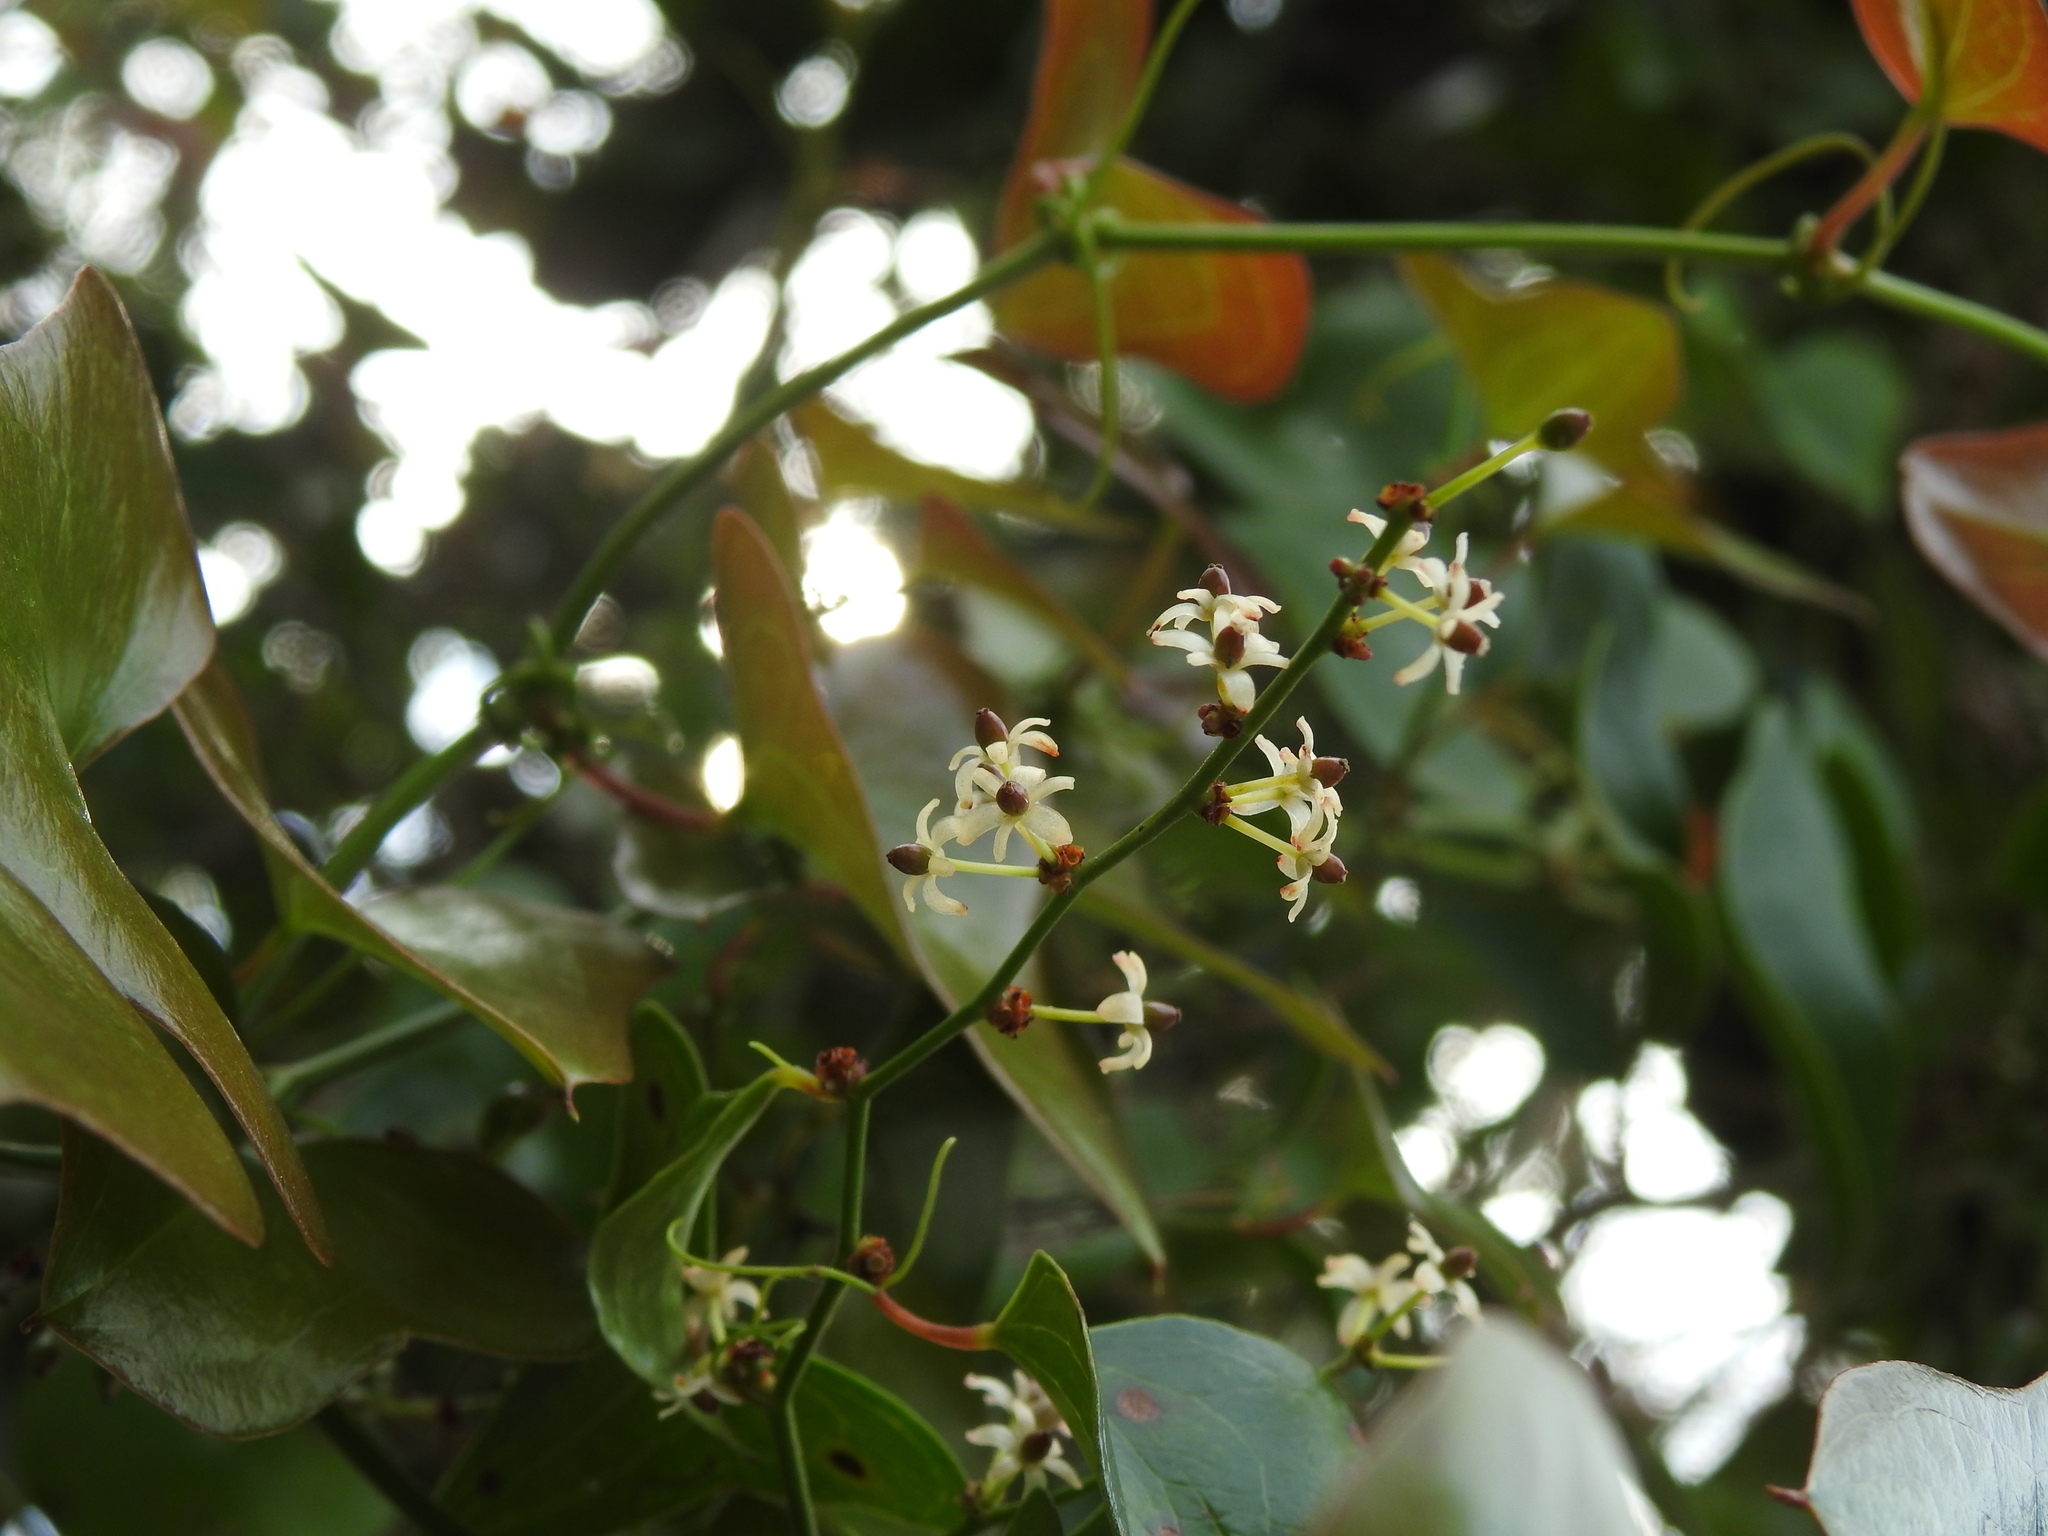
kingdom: Plantae
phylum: Tracheophyta
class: Liliopsida
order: Liliales
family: Smilacaceae
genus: Smilax
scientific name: Smilax aspera
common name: Common smilax
